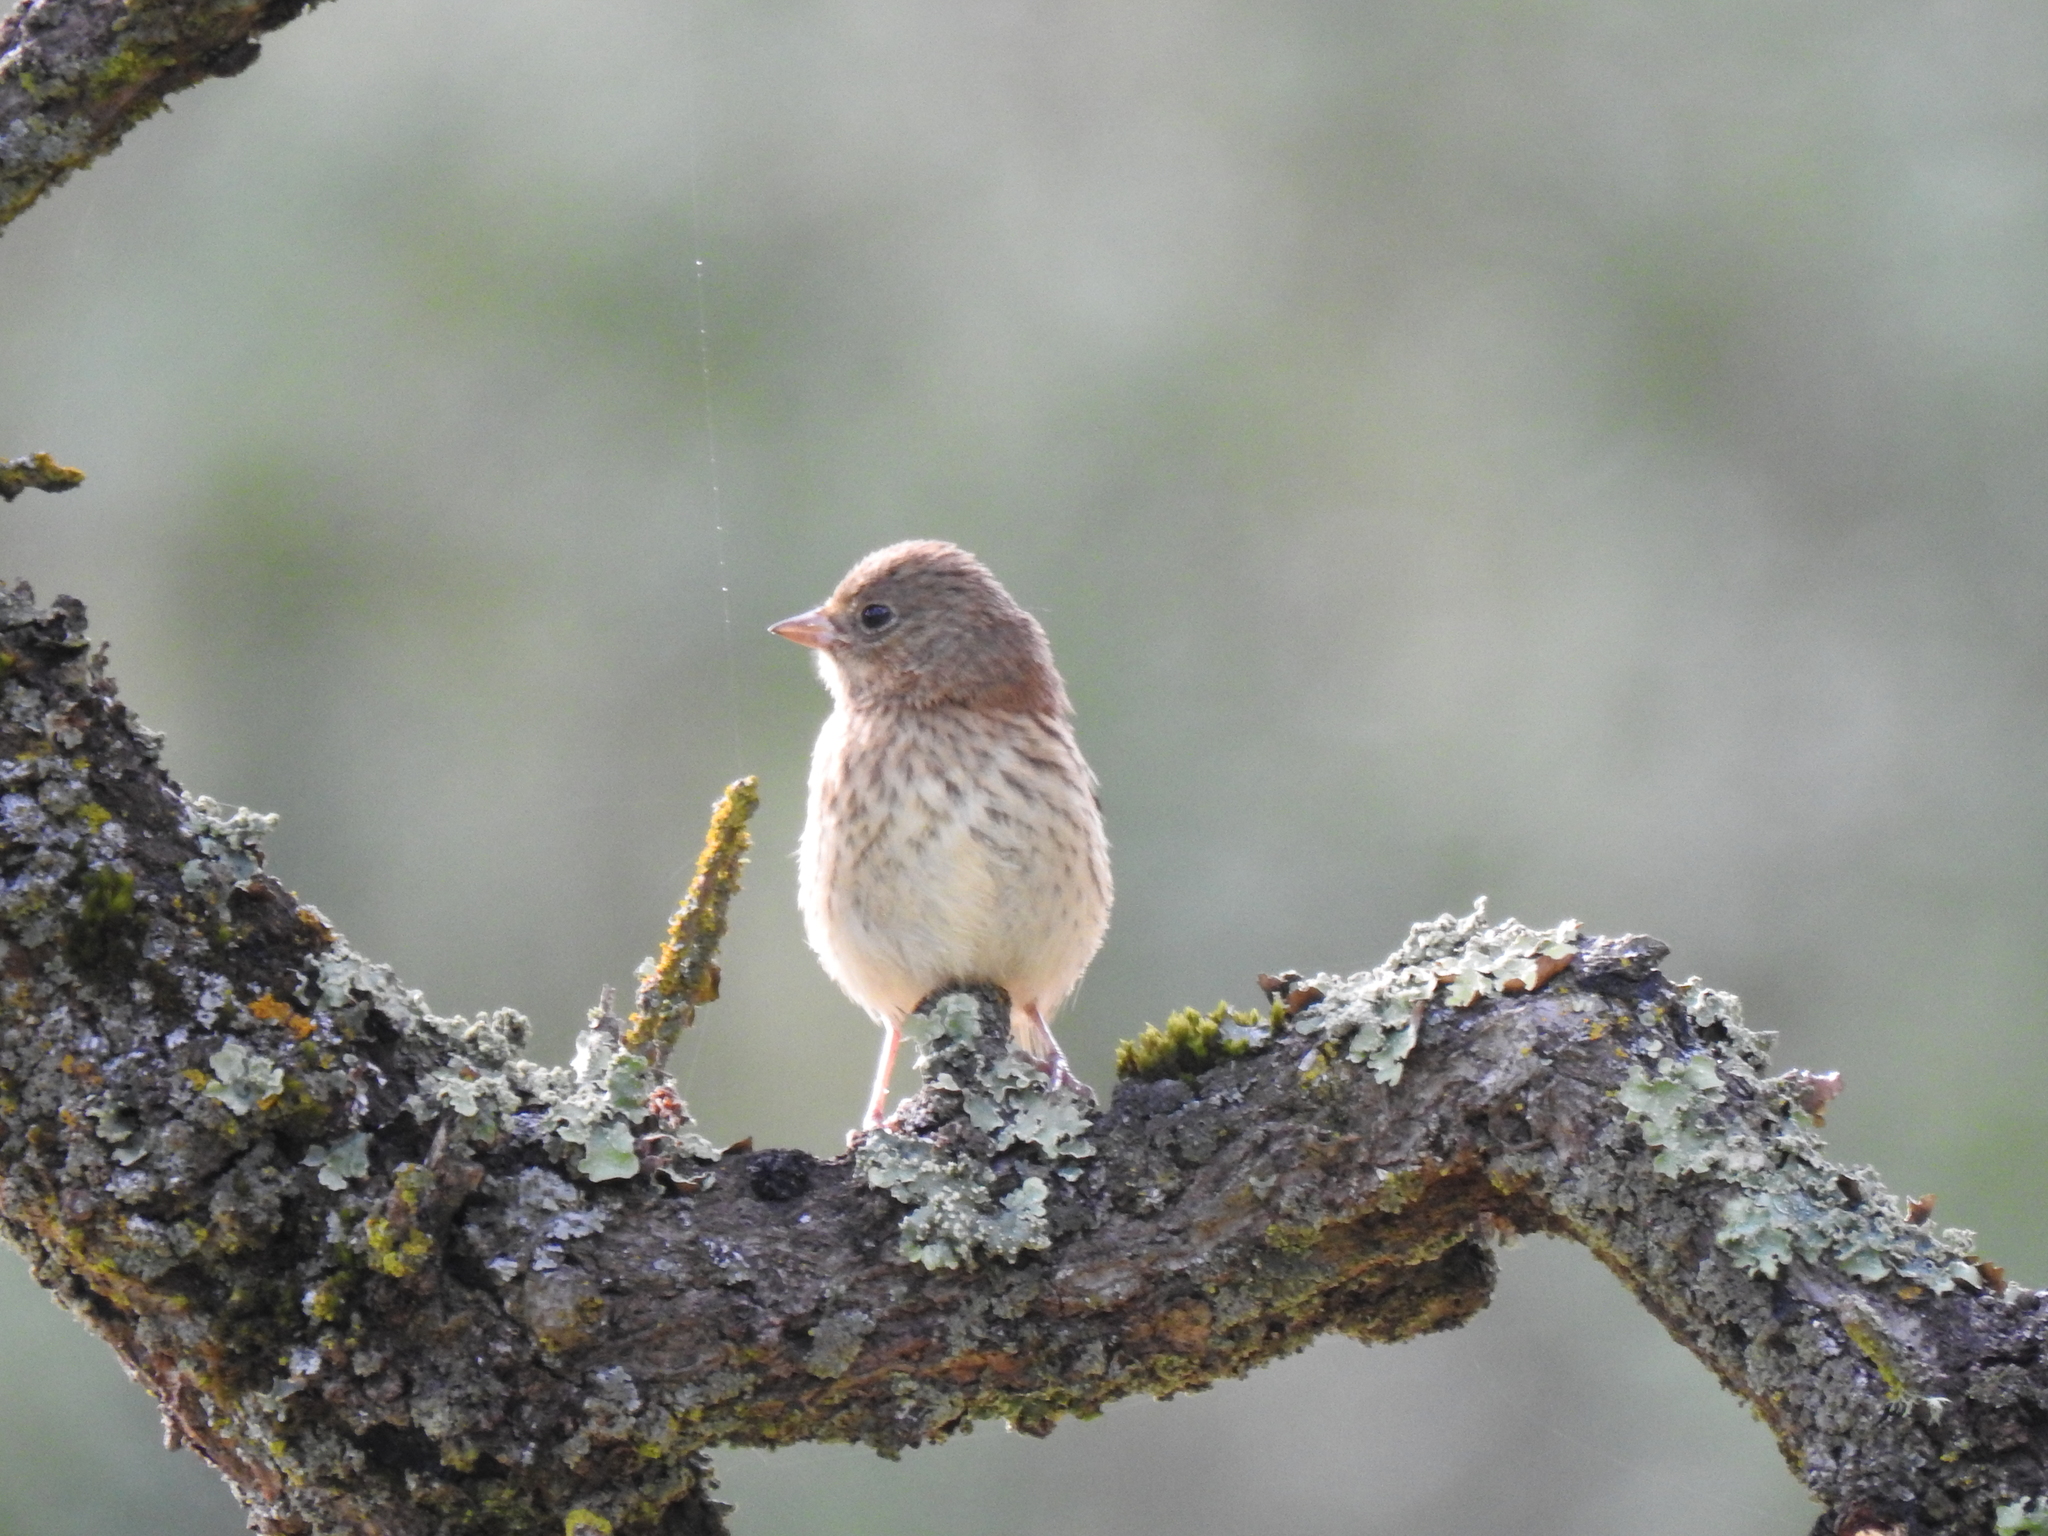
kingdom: Animalia
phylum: Chordata
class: Aves
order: Passeriformes
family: Passerellidae
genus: Junco
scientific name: Junco hyemalis
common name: Dark-eyed junco
